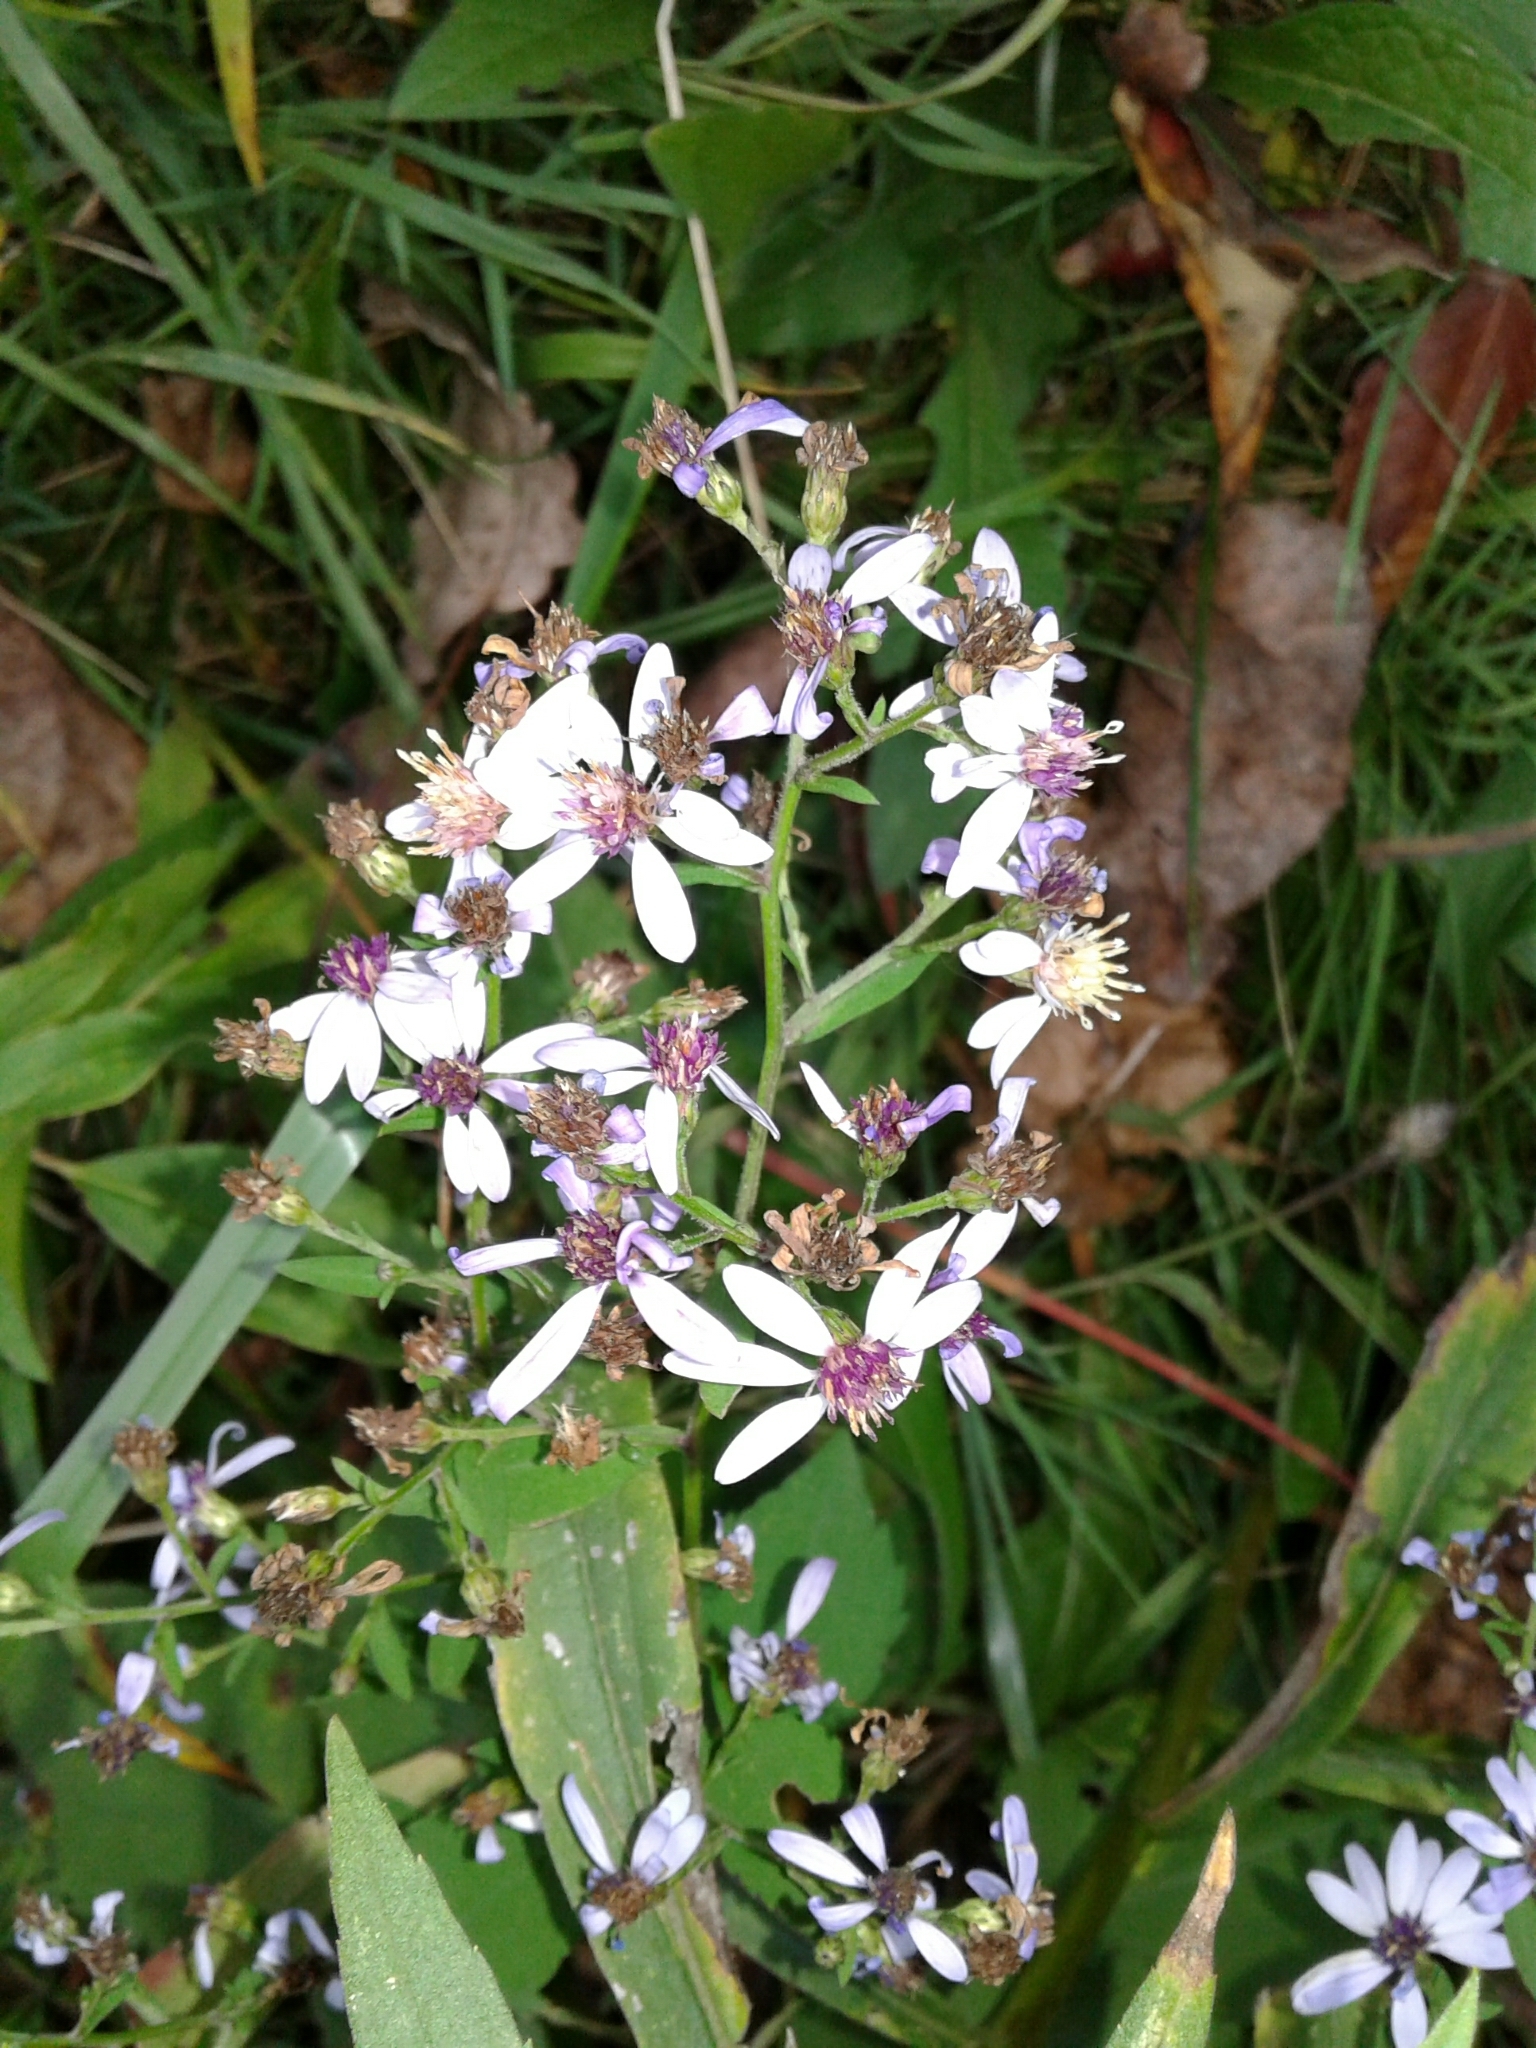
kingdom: Plantae
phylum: Tracheophyta
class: Magnoliopsida
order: Asterales
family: Asteraceae
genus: Symphyotrichum
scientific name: Symphyotrichum cordifolium
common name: Beeweed
